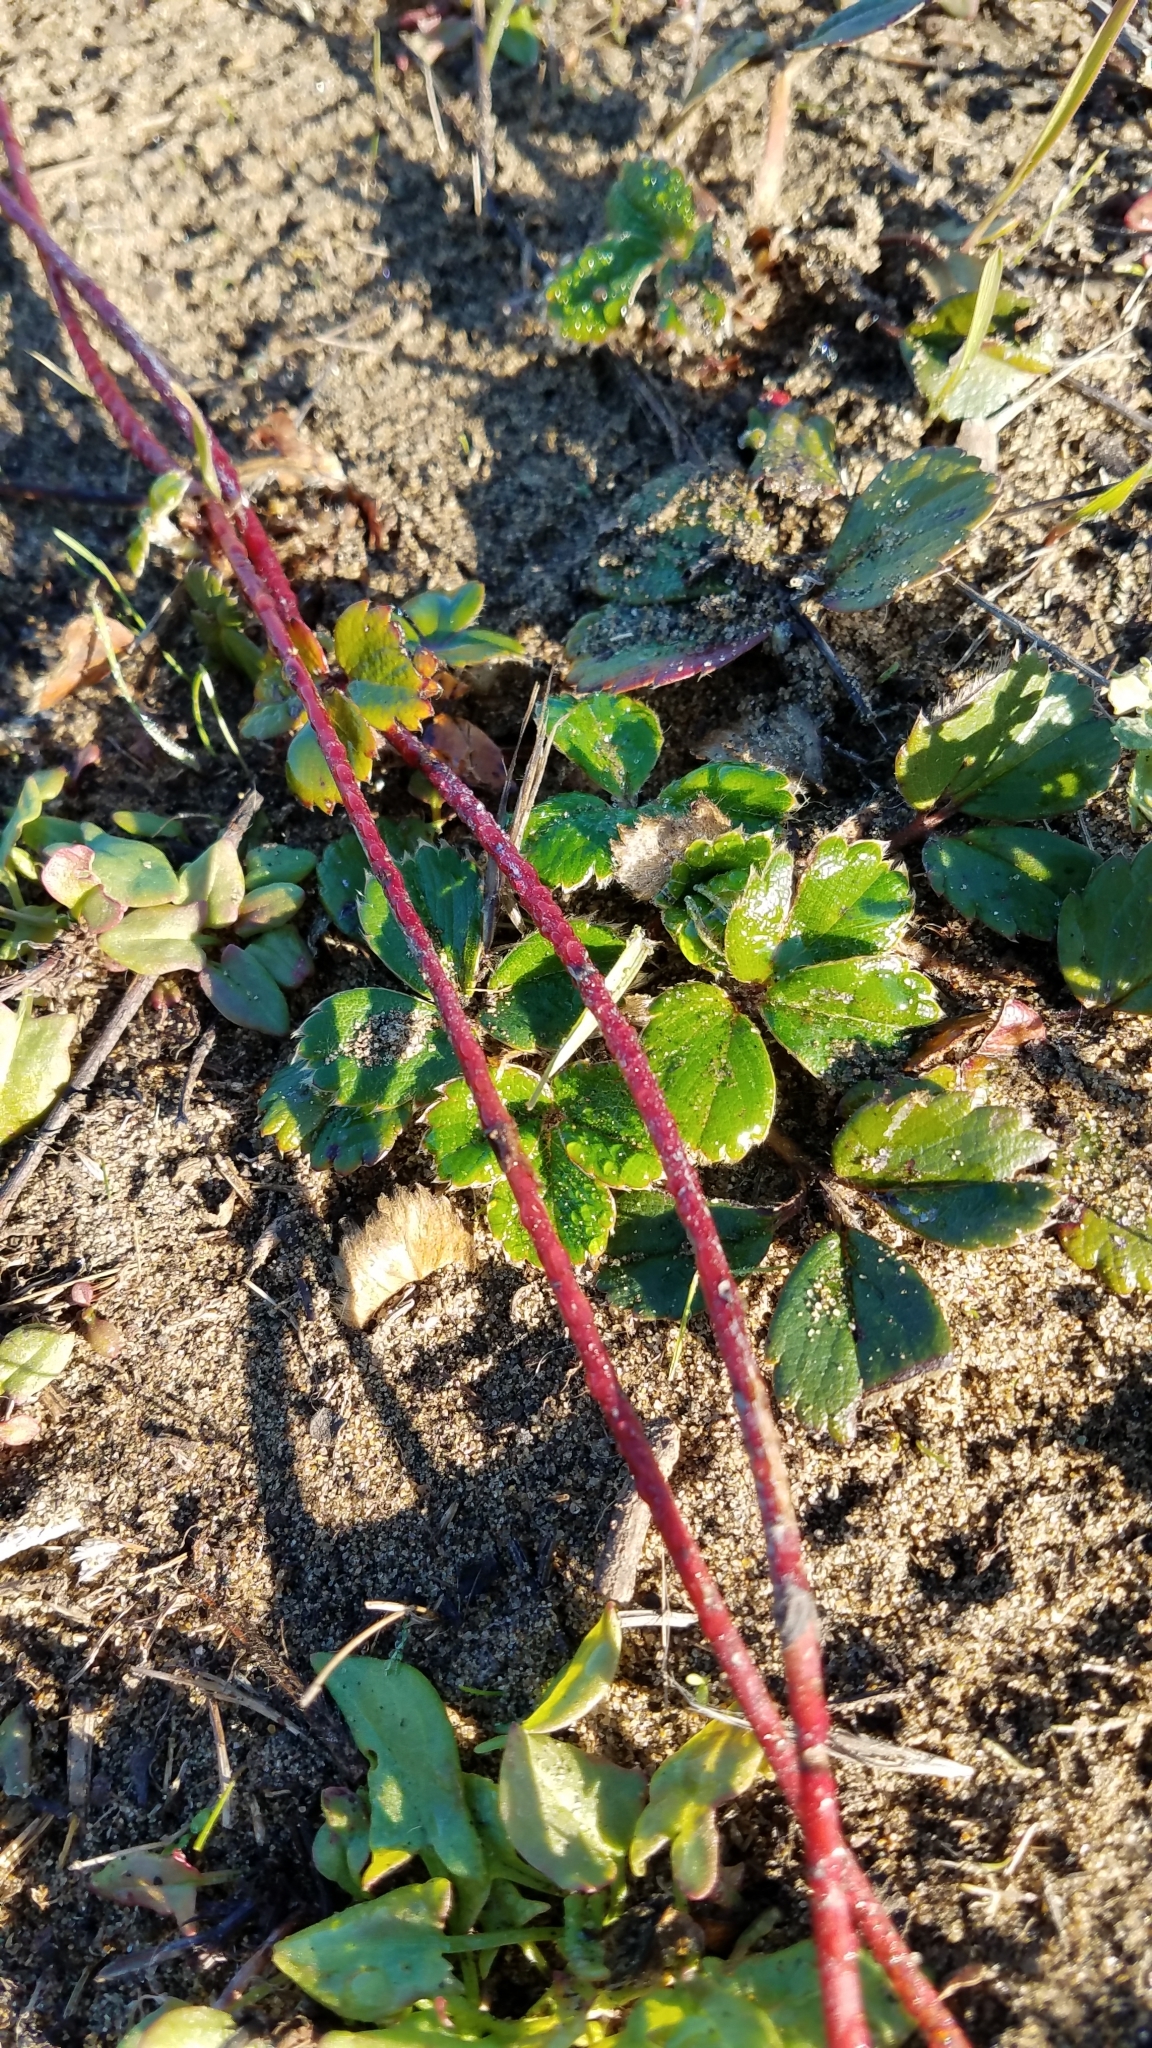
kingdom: Plantae
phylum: Tracheophyta
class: Magnoliopsida
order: Rosales
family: Rosaceae
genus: Fragaria
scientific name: Fragaria chiloensis
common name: Beach strawberry
